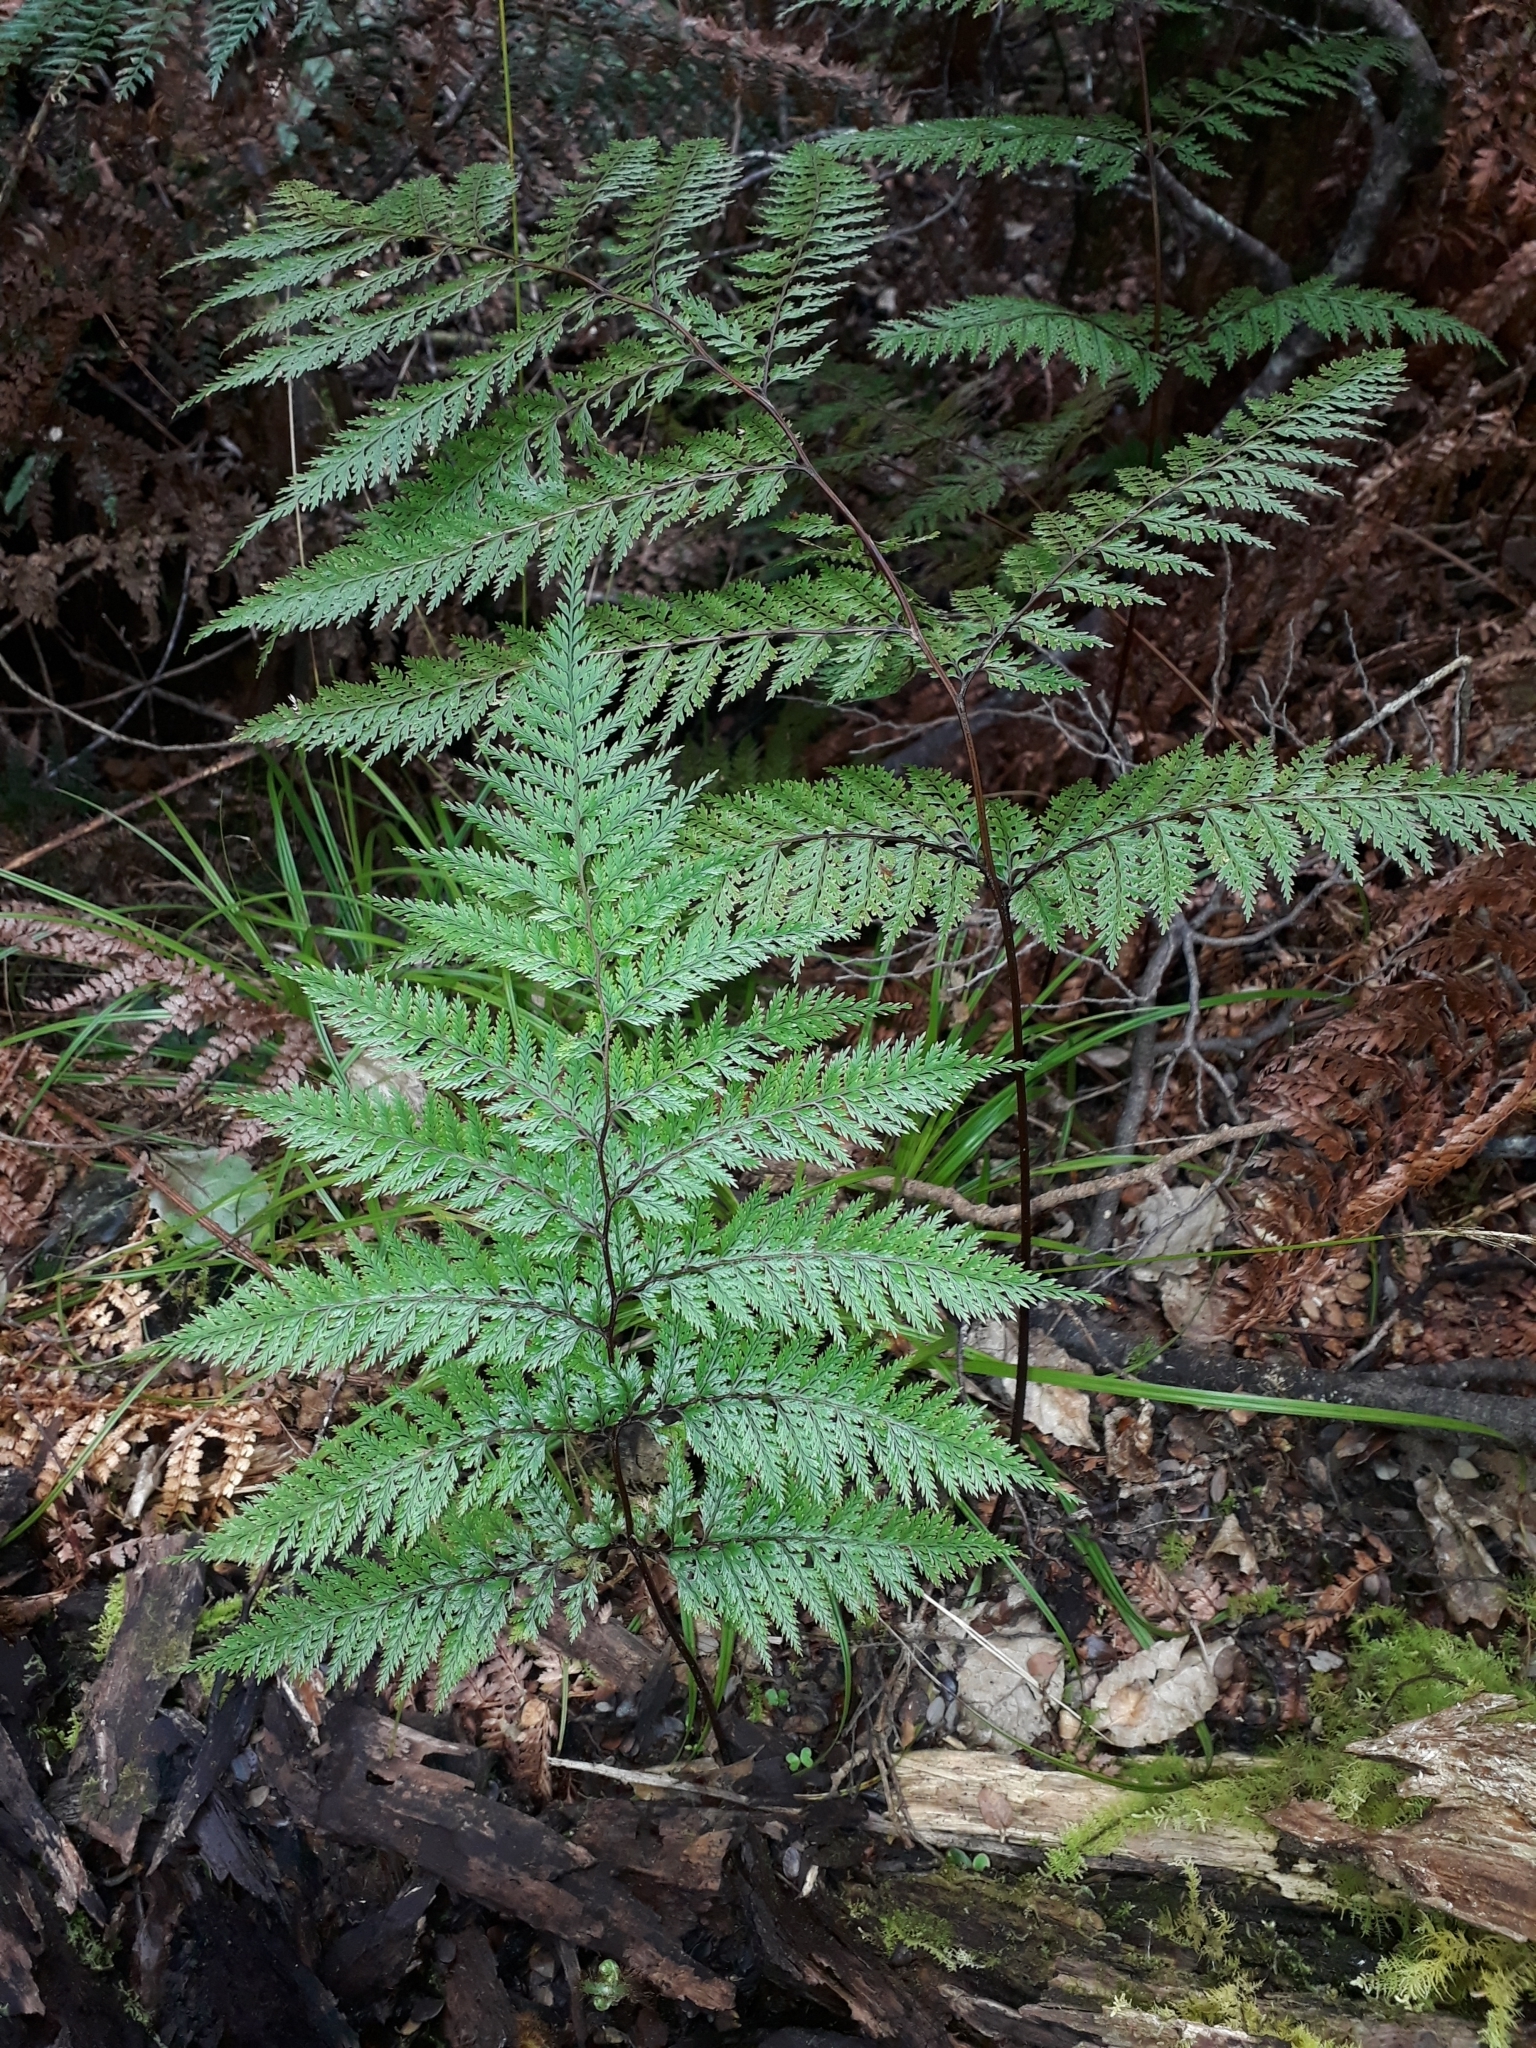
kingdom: Plantae
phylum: Tracheophyta
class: Polypodiopsida
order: Polypodiales
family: Dennstaedtiaceae
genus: Dennstaedtia
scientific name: Dennstaedtia novae-zelandiae
